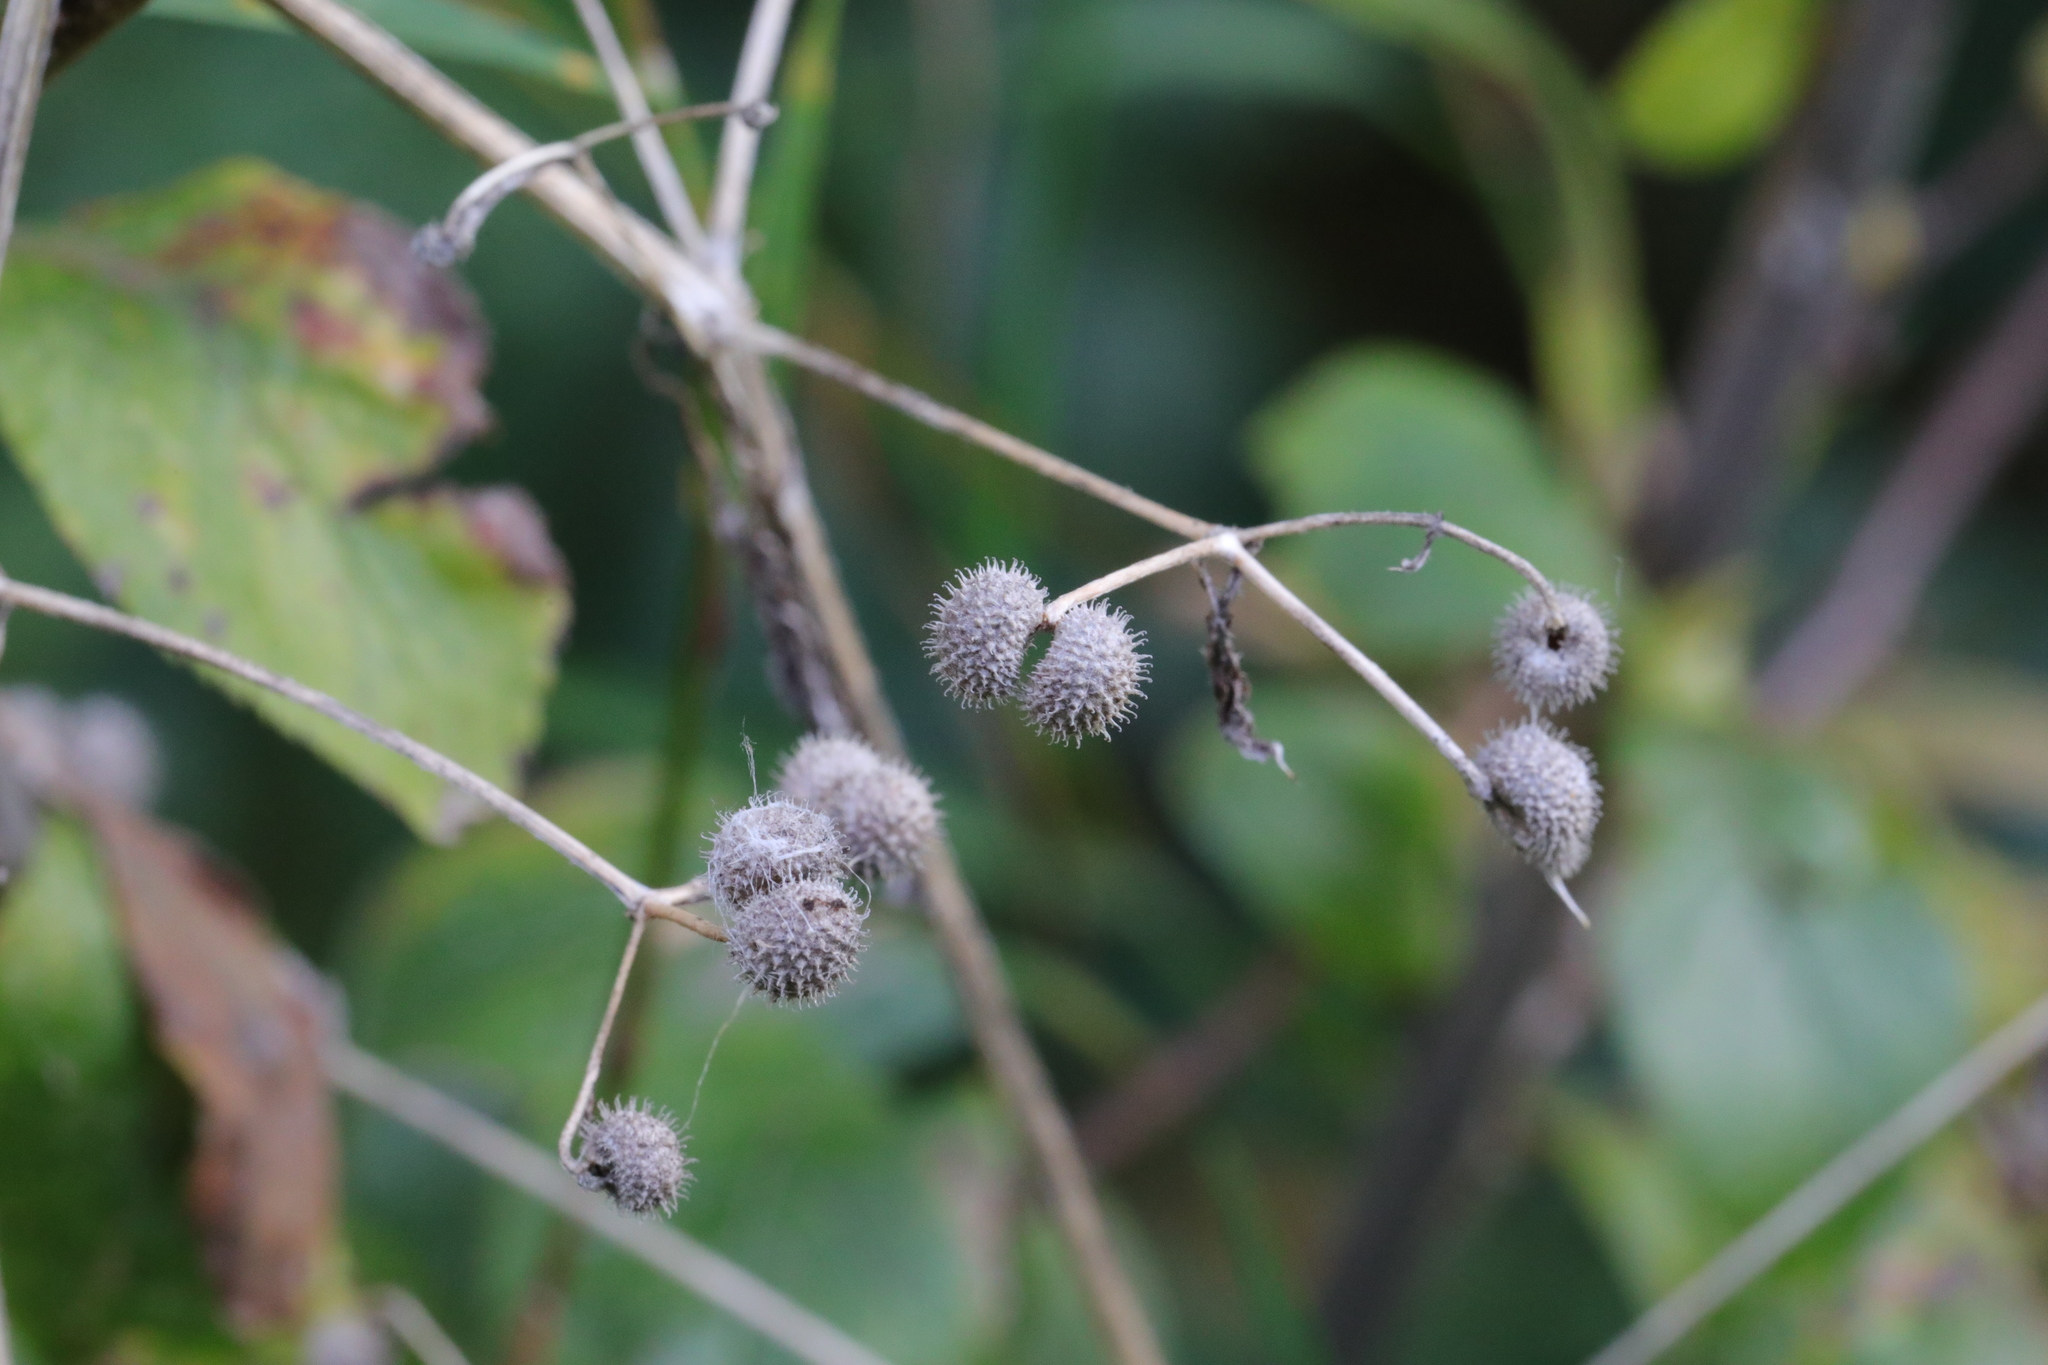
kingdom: Plantae
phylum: Tracheophyta
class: Magnoliopsida
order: Gentianales
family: Rubiaceae
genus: Galium
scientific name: Galium aparine
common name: Cleavers
